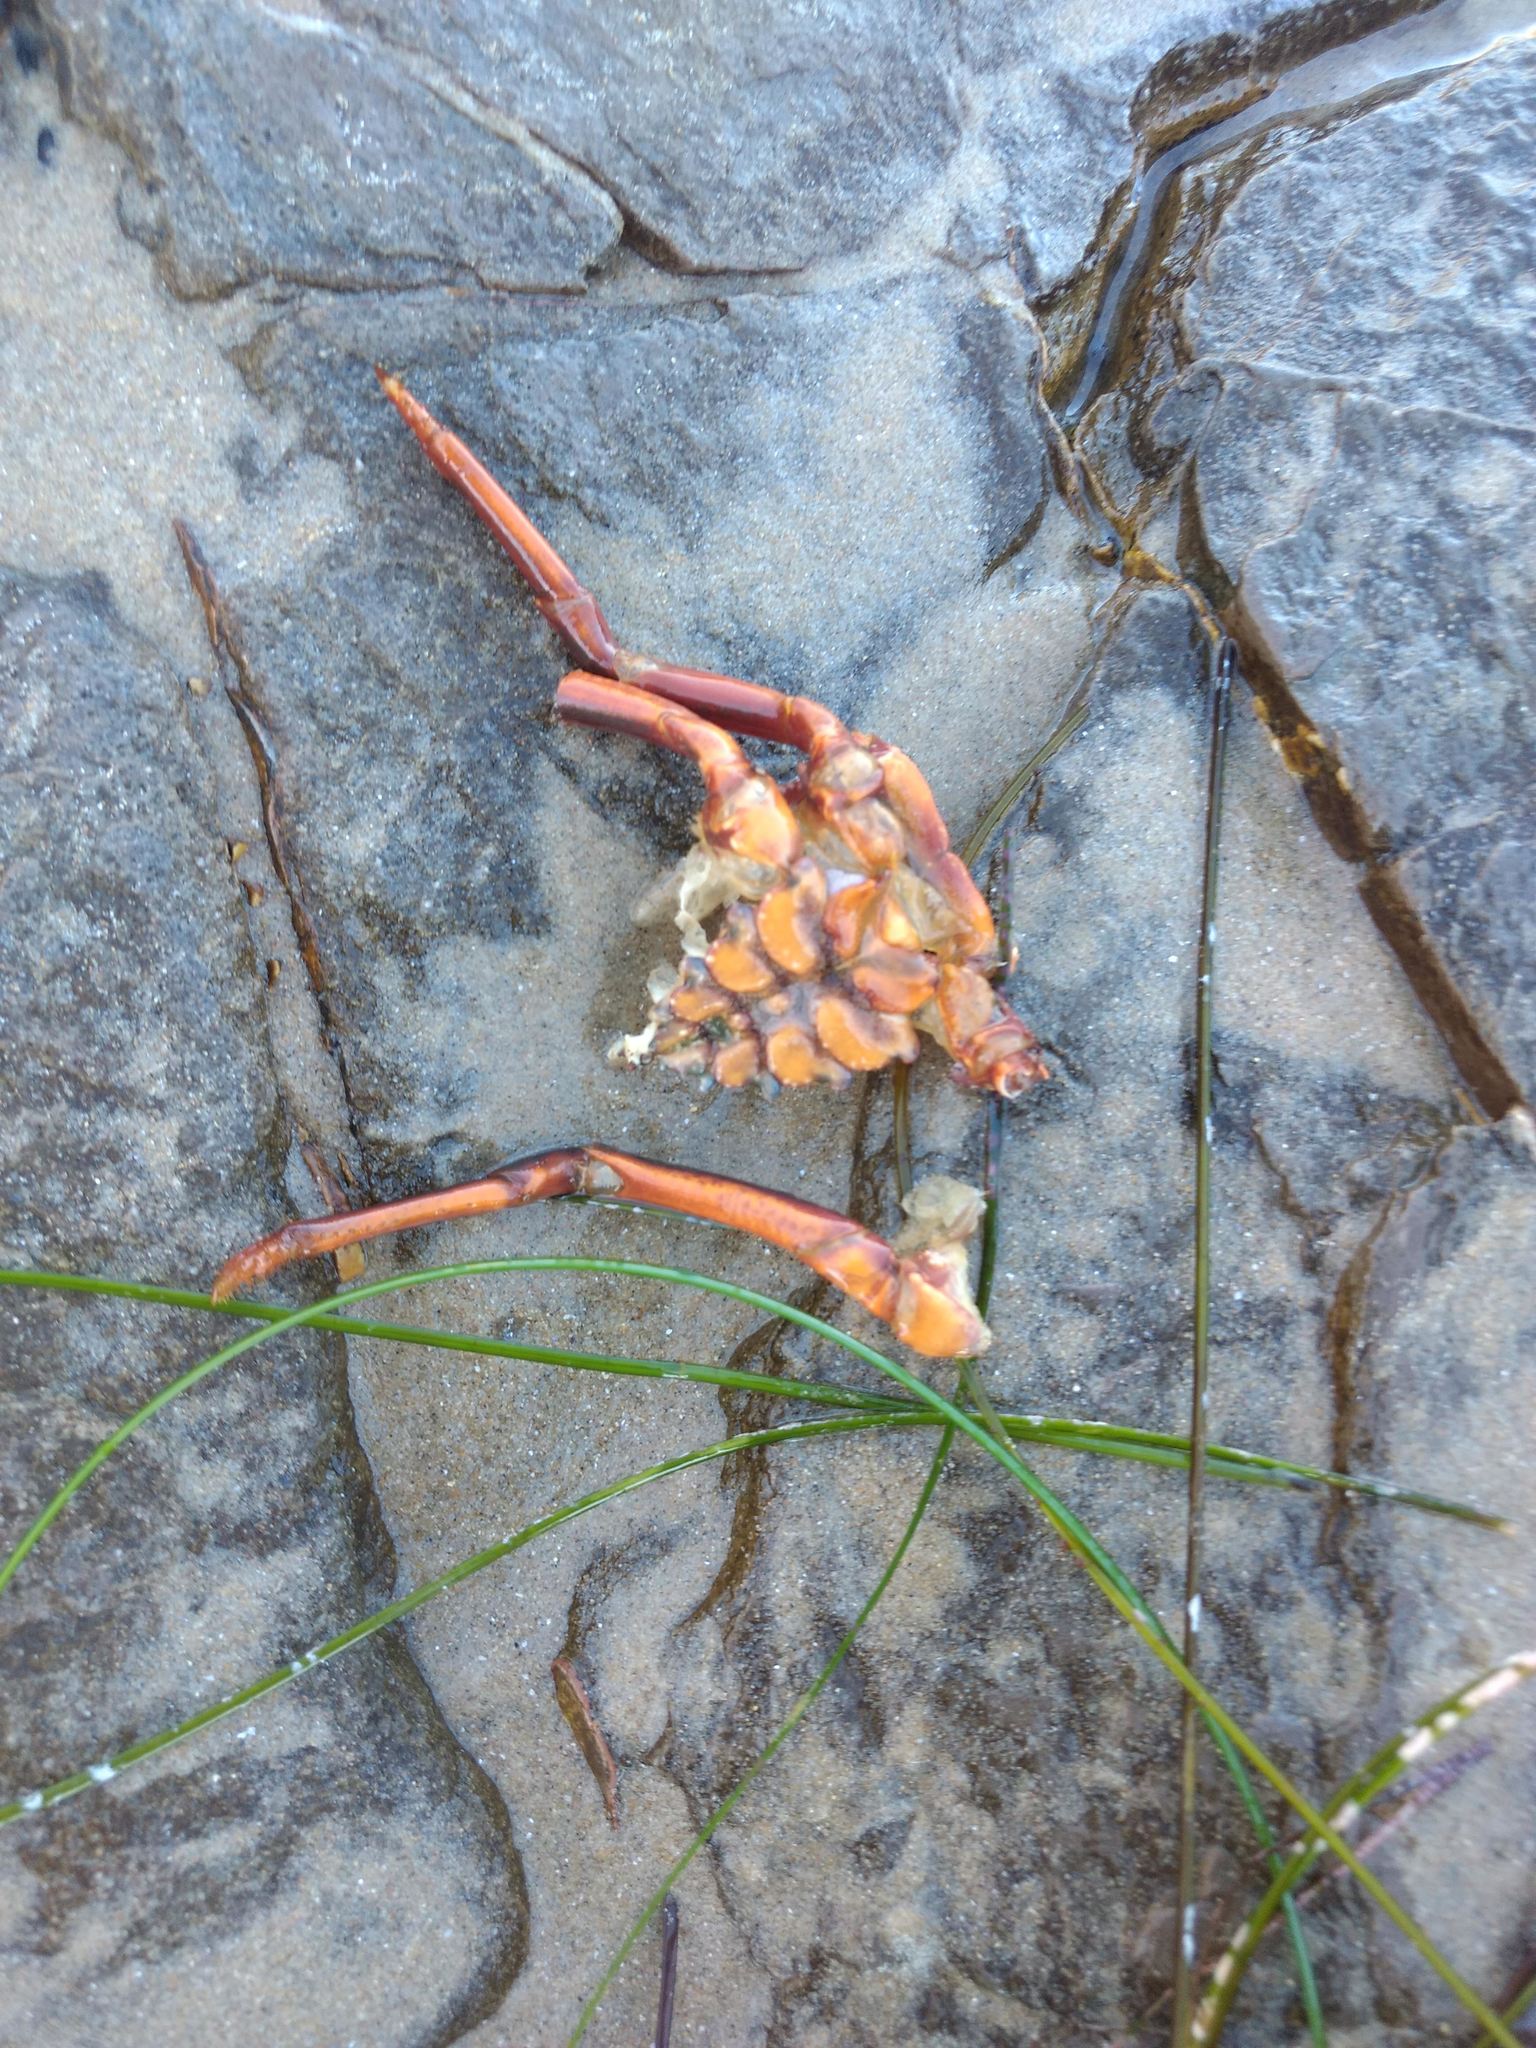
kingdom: Animalia
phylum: Arthropoda
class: Malacostraca
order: Decapoda
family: Palinuridae
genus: Panulirus
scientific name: Panulirus interruptus
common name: California spiny lobster
